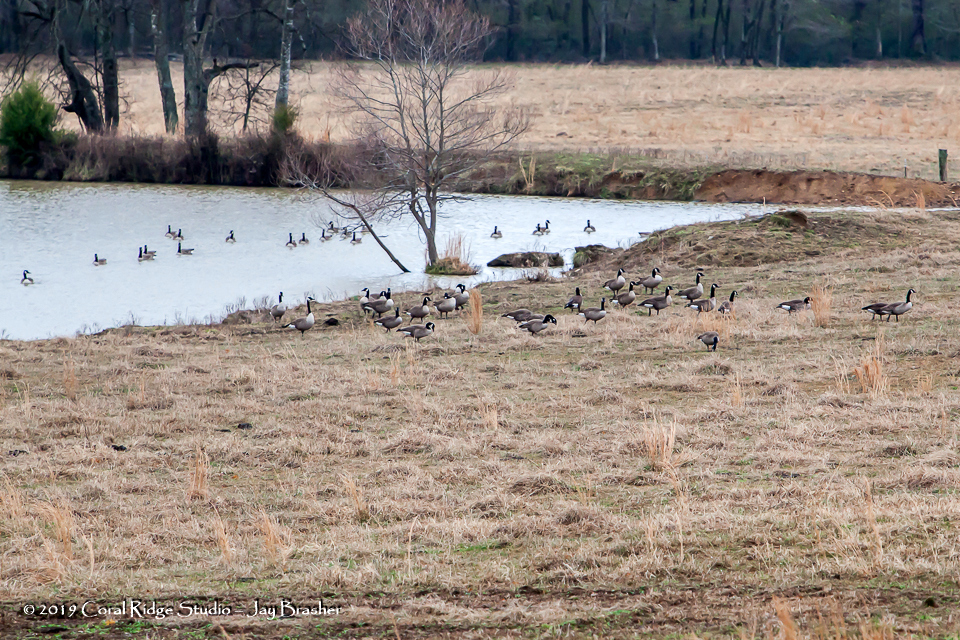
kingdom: Animalia
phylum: Chordata
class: Aves
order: Anseriformes
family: Anatidae
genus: Branta
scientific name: Branta canadensis
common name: Canada goose
